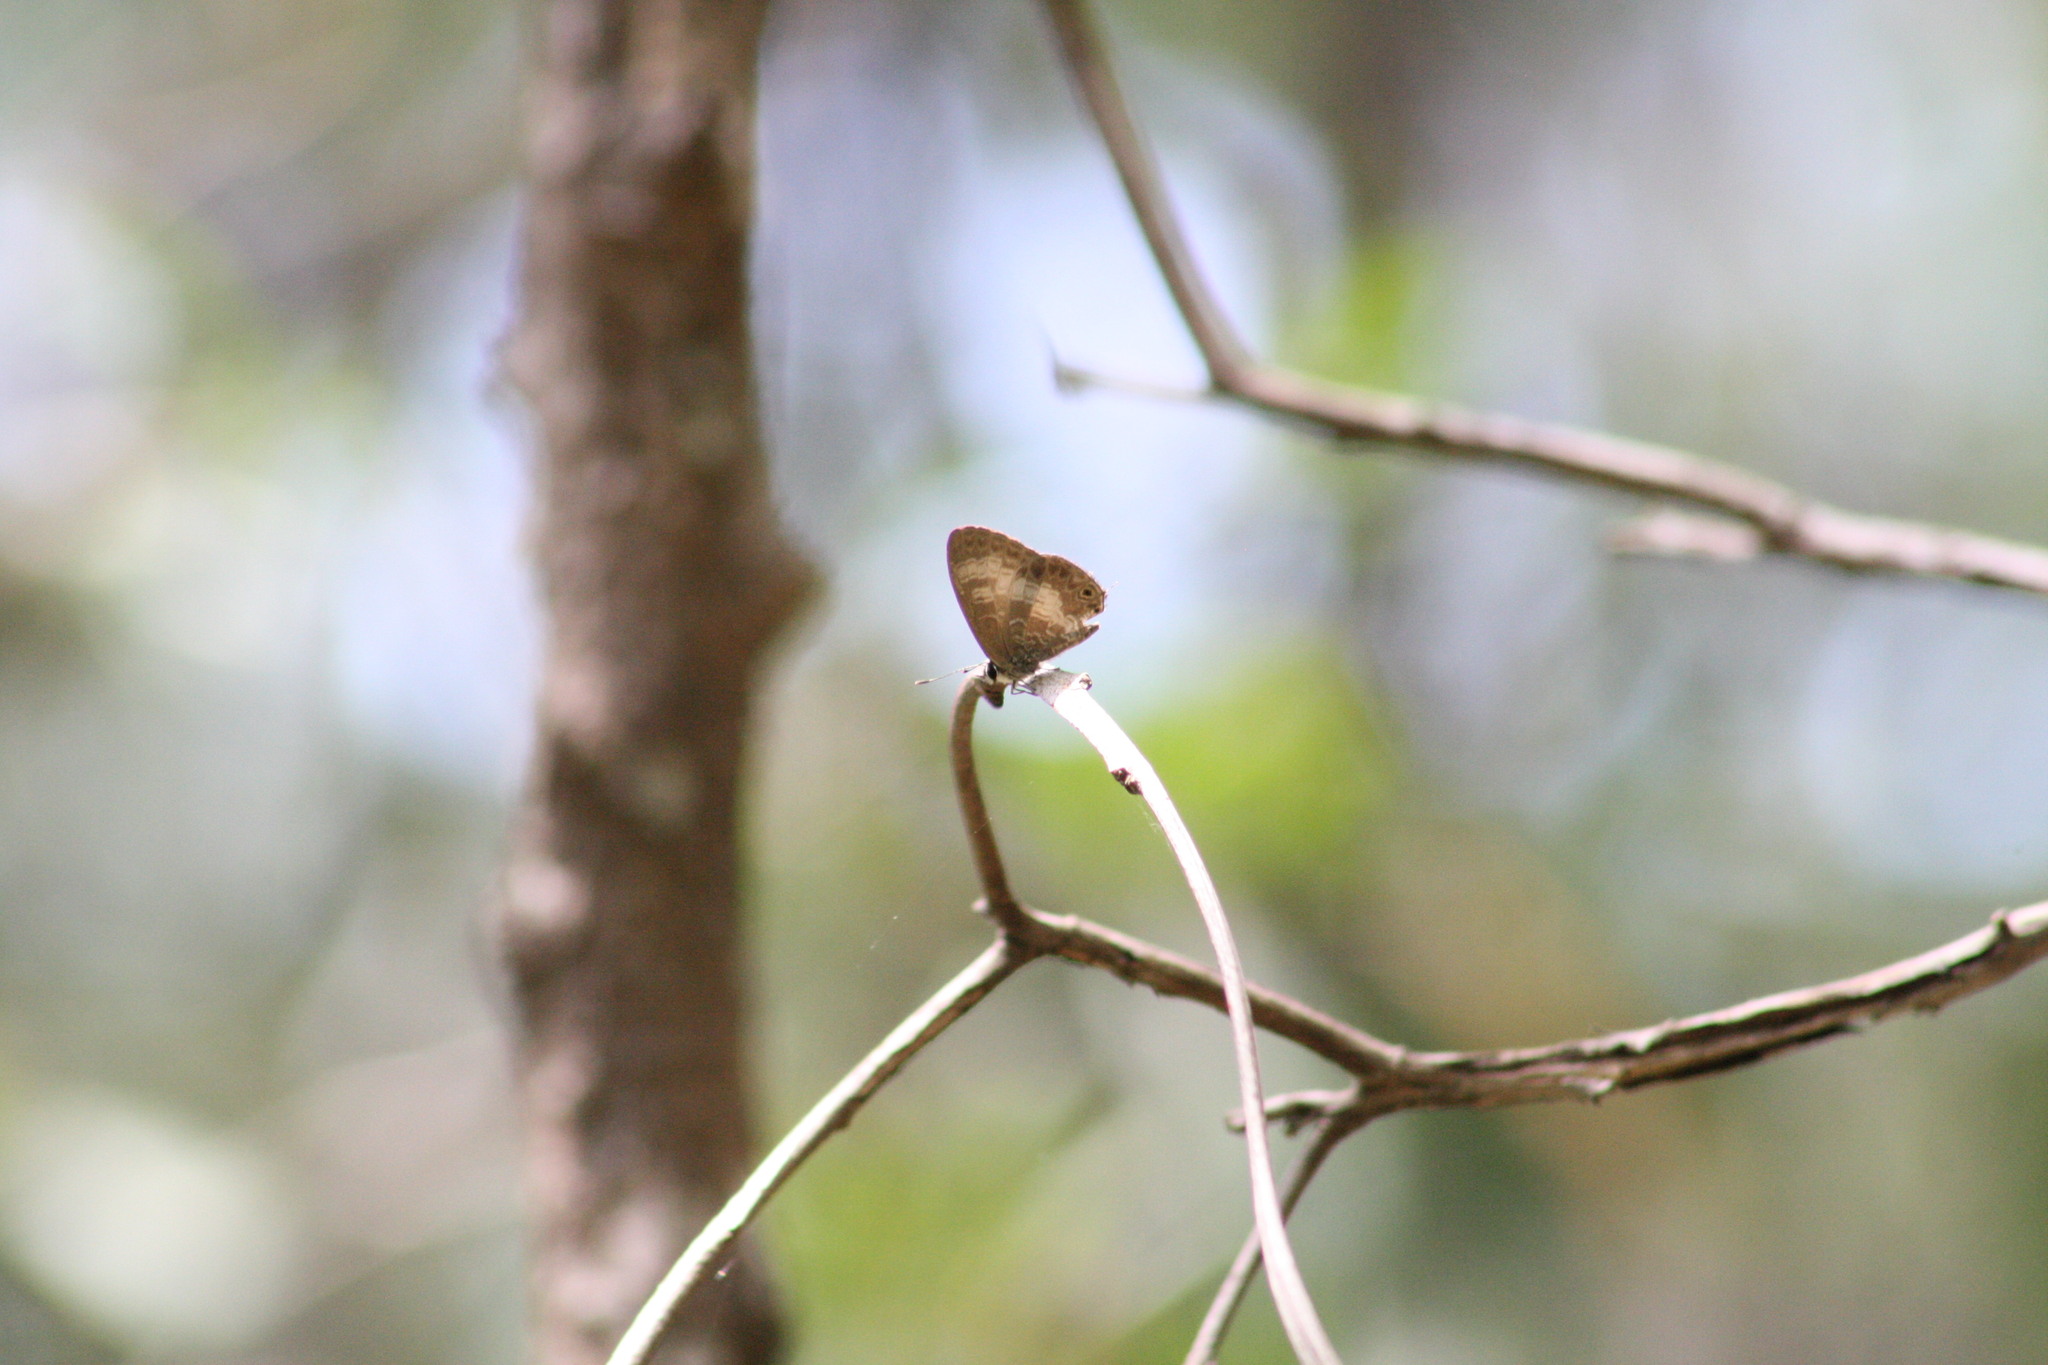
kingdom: Animalia
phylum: Arthropoda
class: Insecta
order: Lepidoptera
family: Lycaenidae
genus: Nacaduba
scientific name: Nacaduba kurava
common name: Transparent 6-line blue
